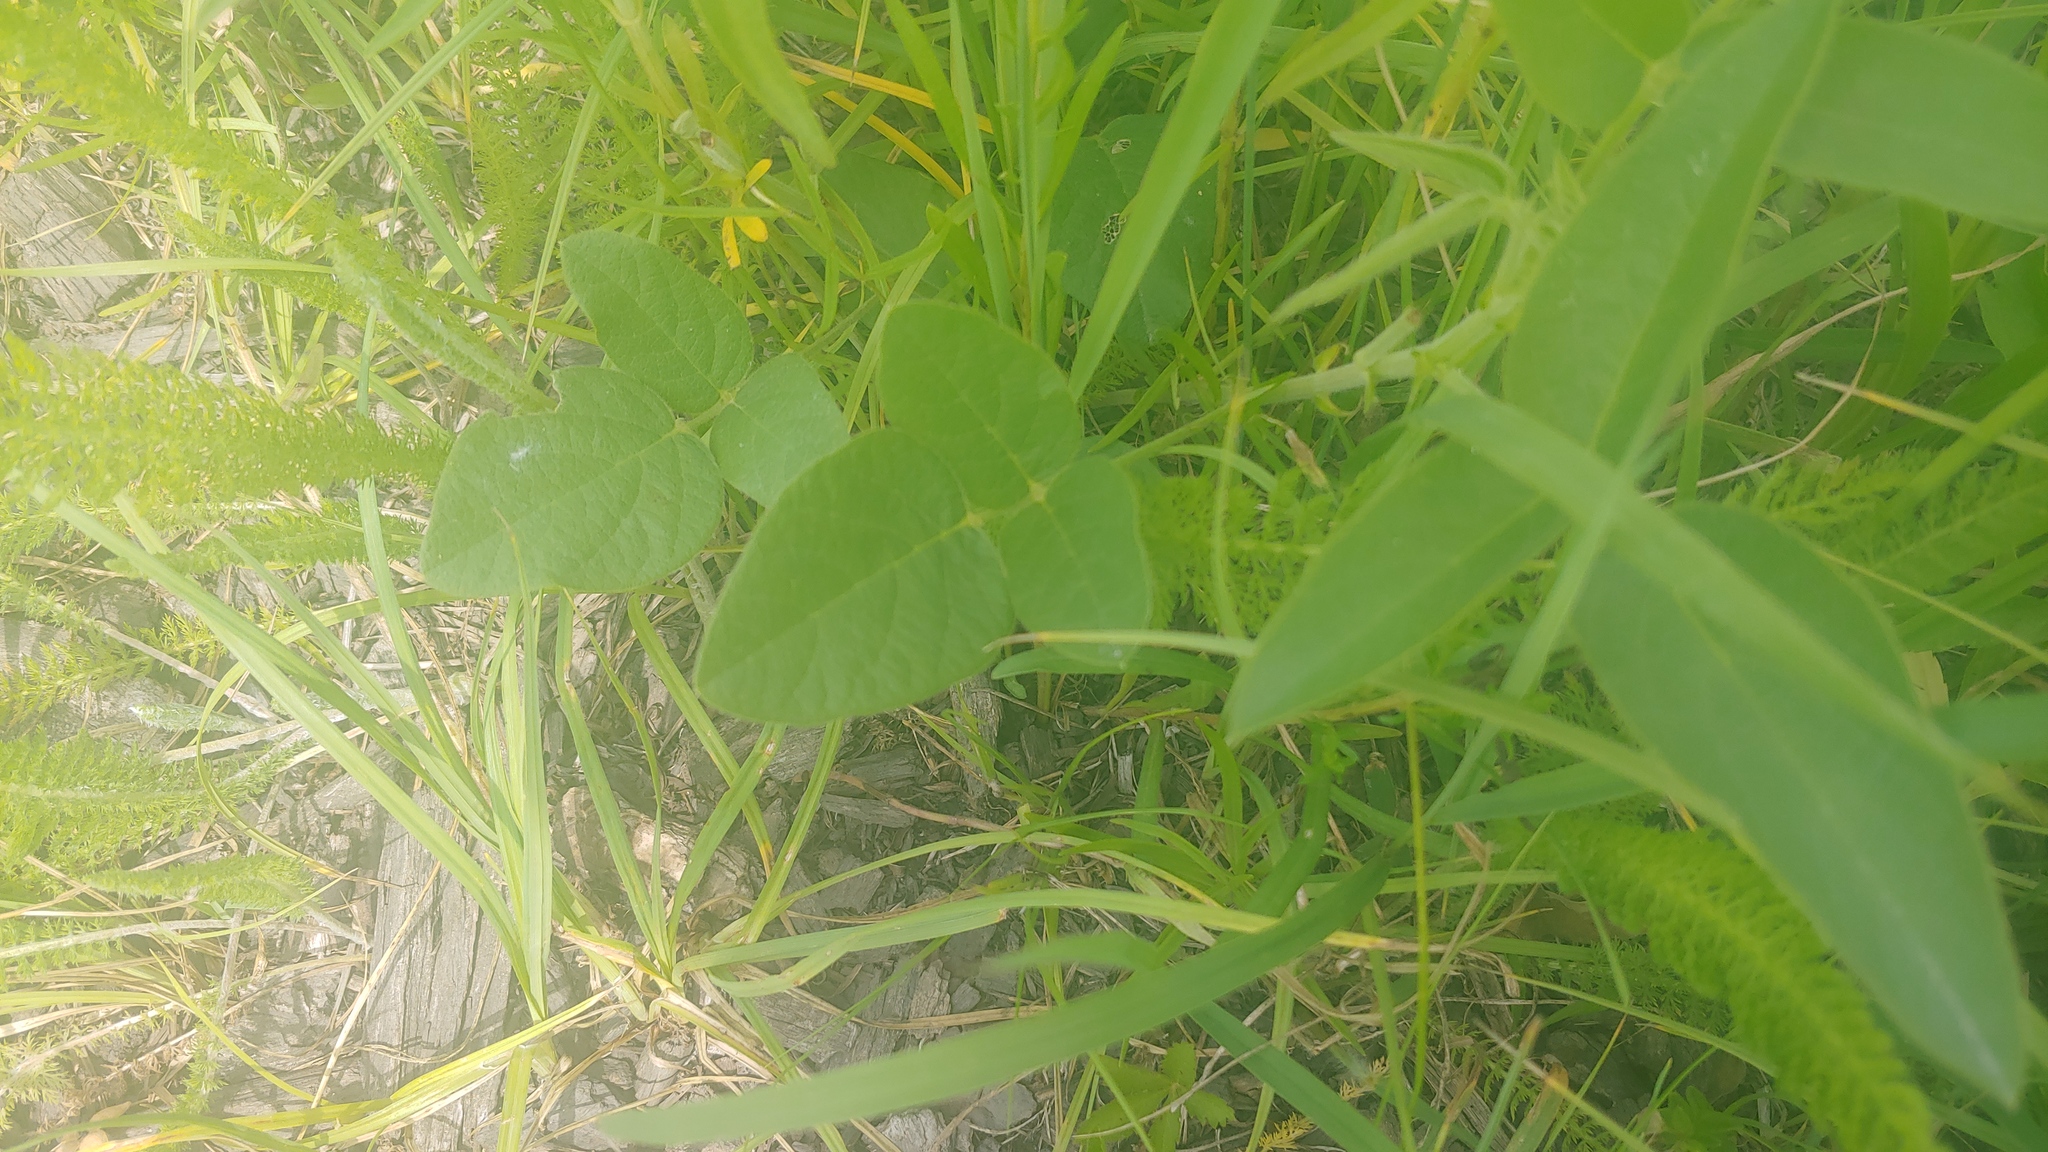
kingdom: Plantae
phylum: Tracheophyta
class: Magnoliopsida
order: Fabales
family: Fabaceae
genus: Desmodium
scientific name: Desmodium illinoense
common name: Illinois tick-clover
